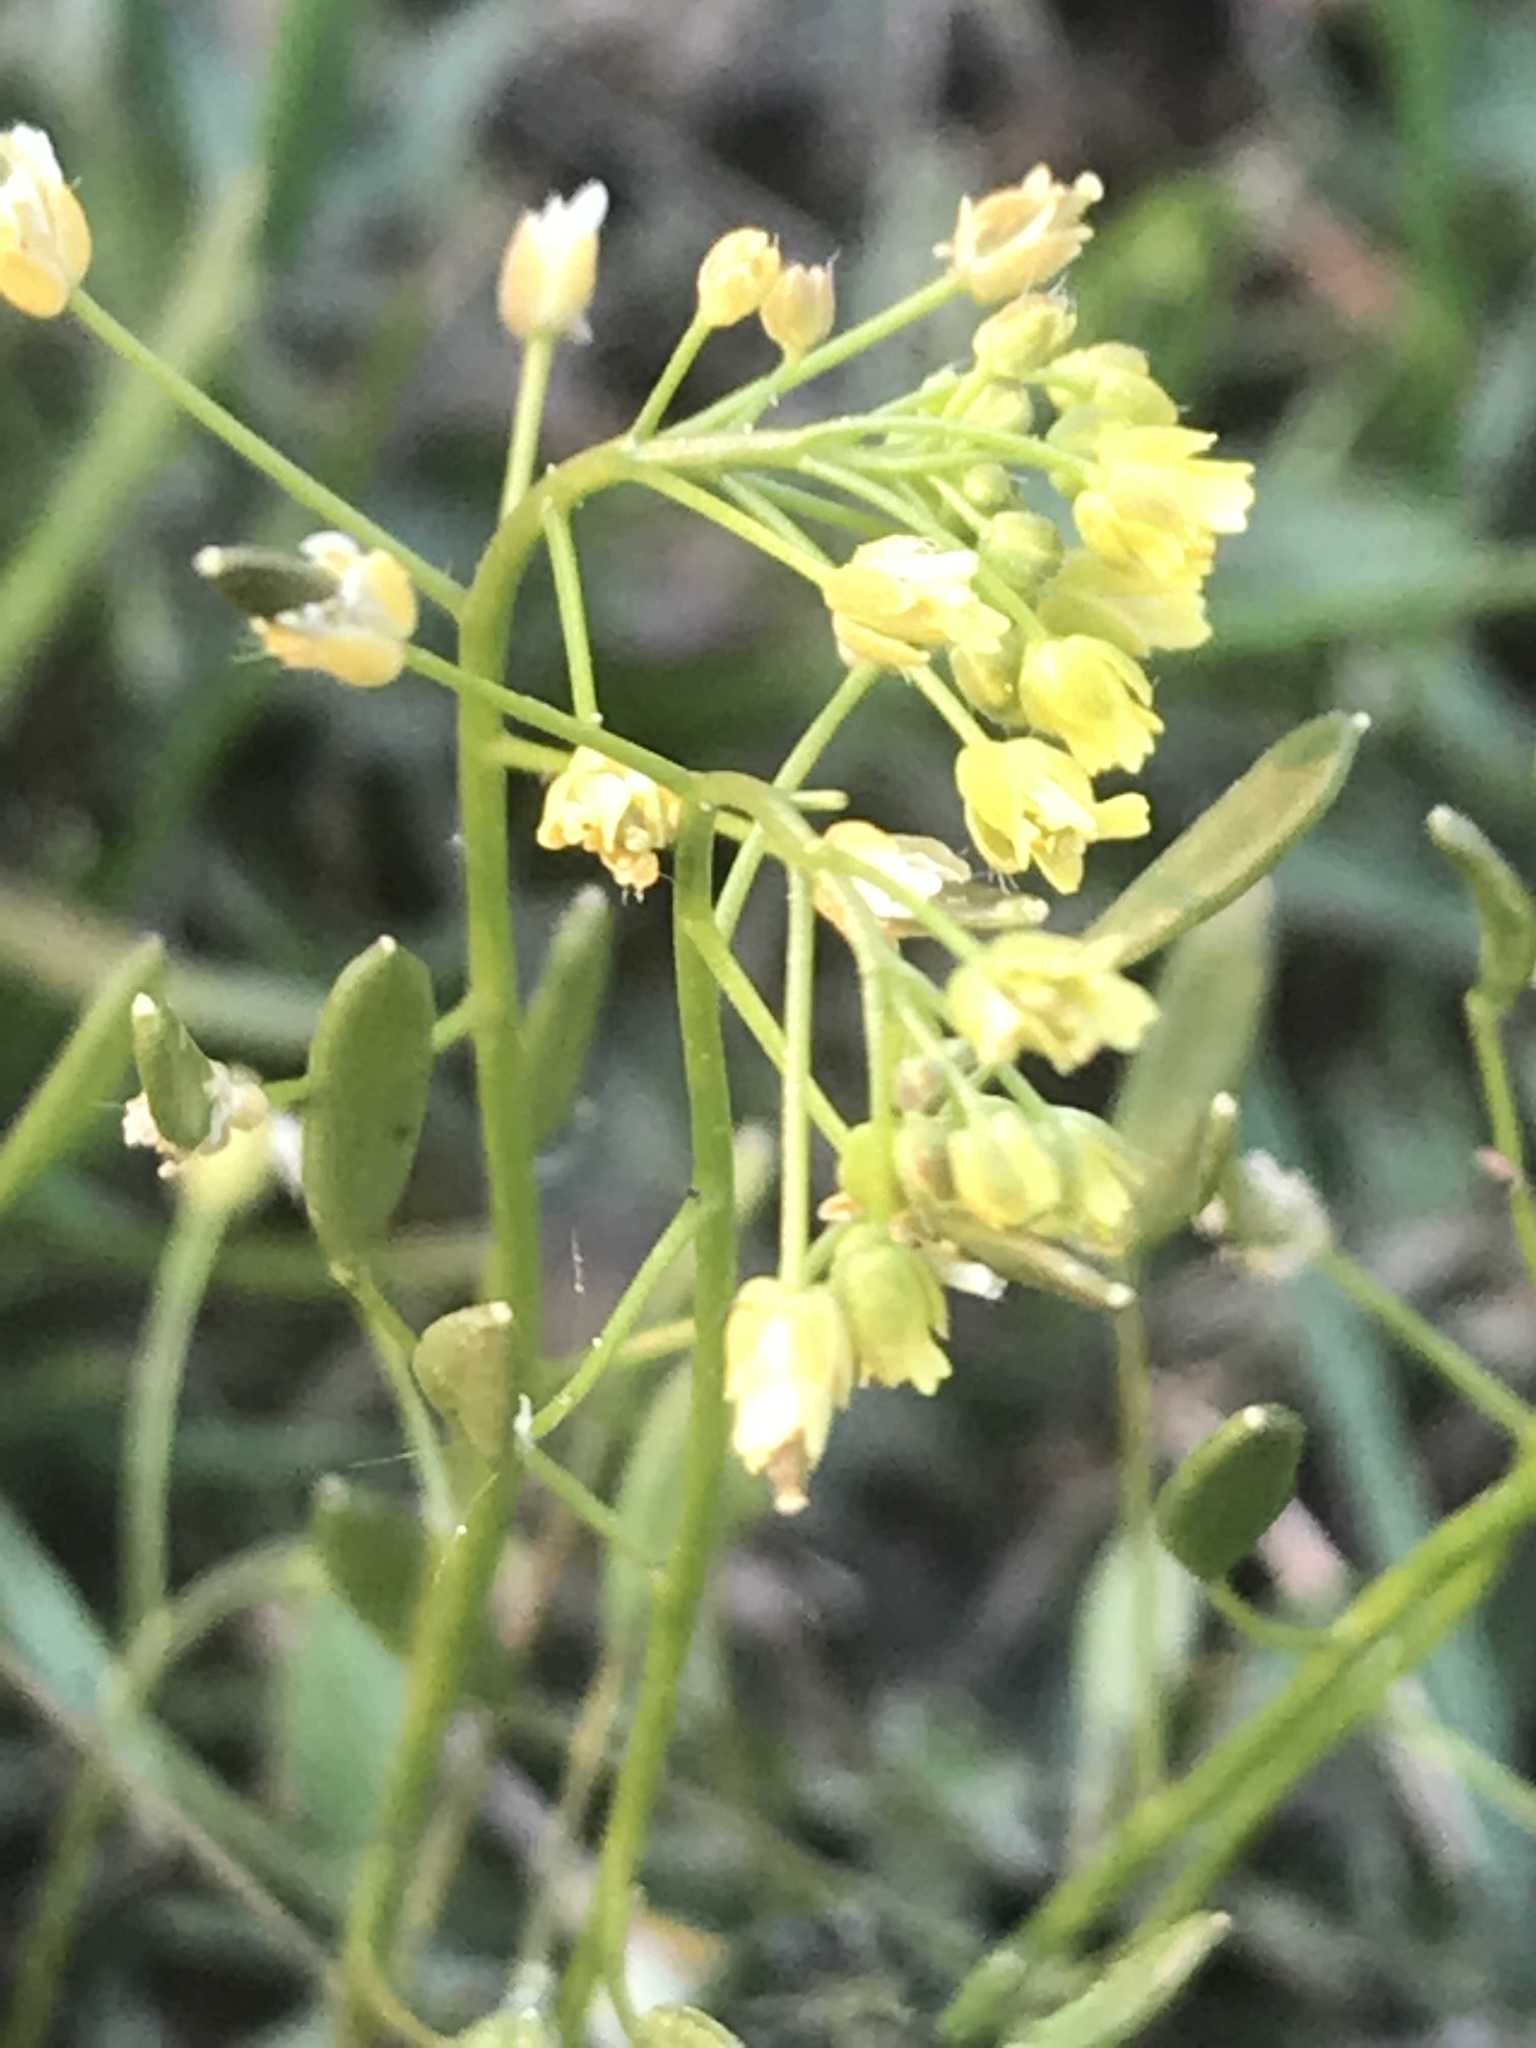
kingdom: Plantae
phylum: Tracheophyta
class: Magnoliopsida
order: Brassicales
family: Brassicaceae
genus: Draba
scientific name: Draba nemorosa
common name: Wood whitlow-grass
